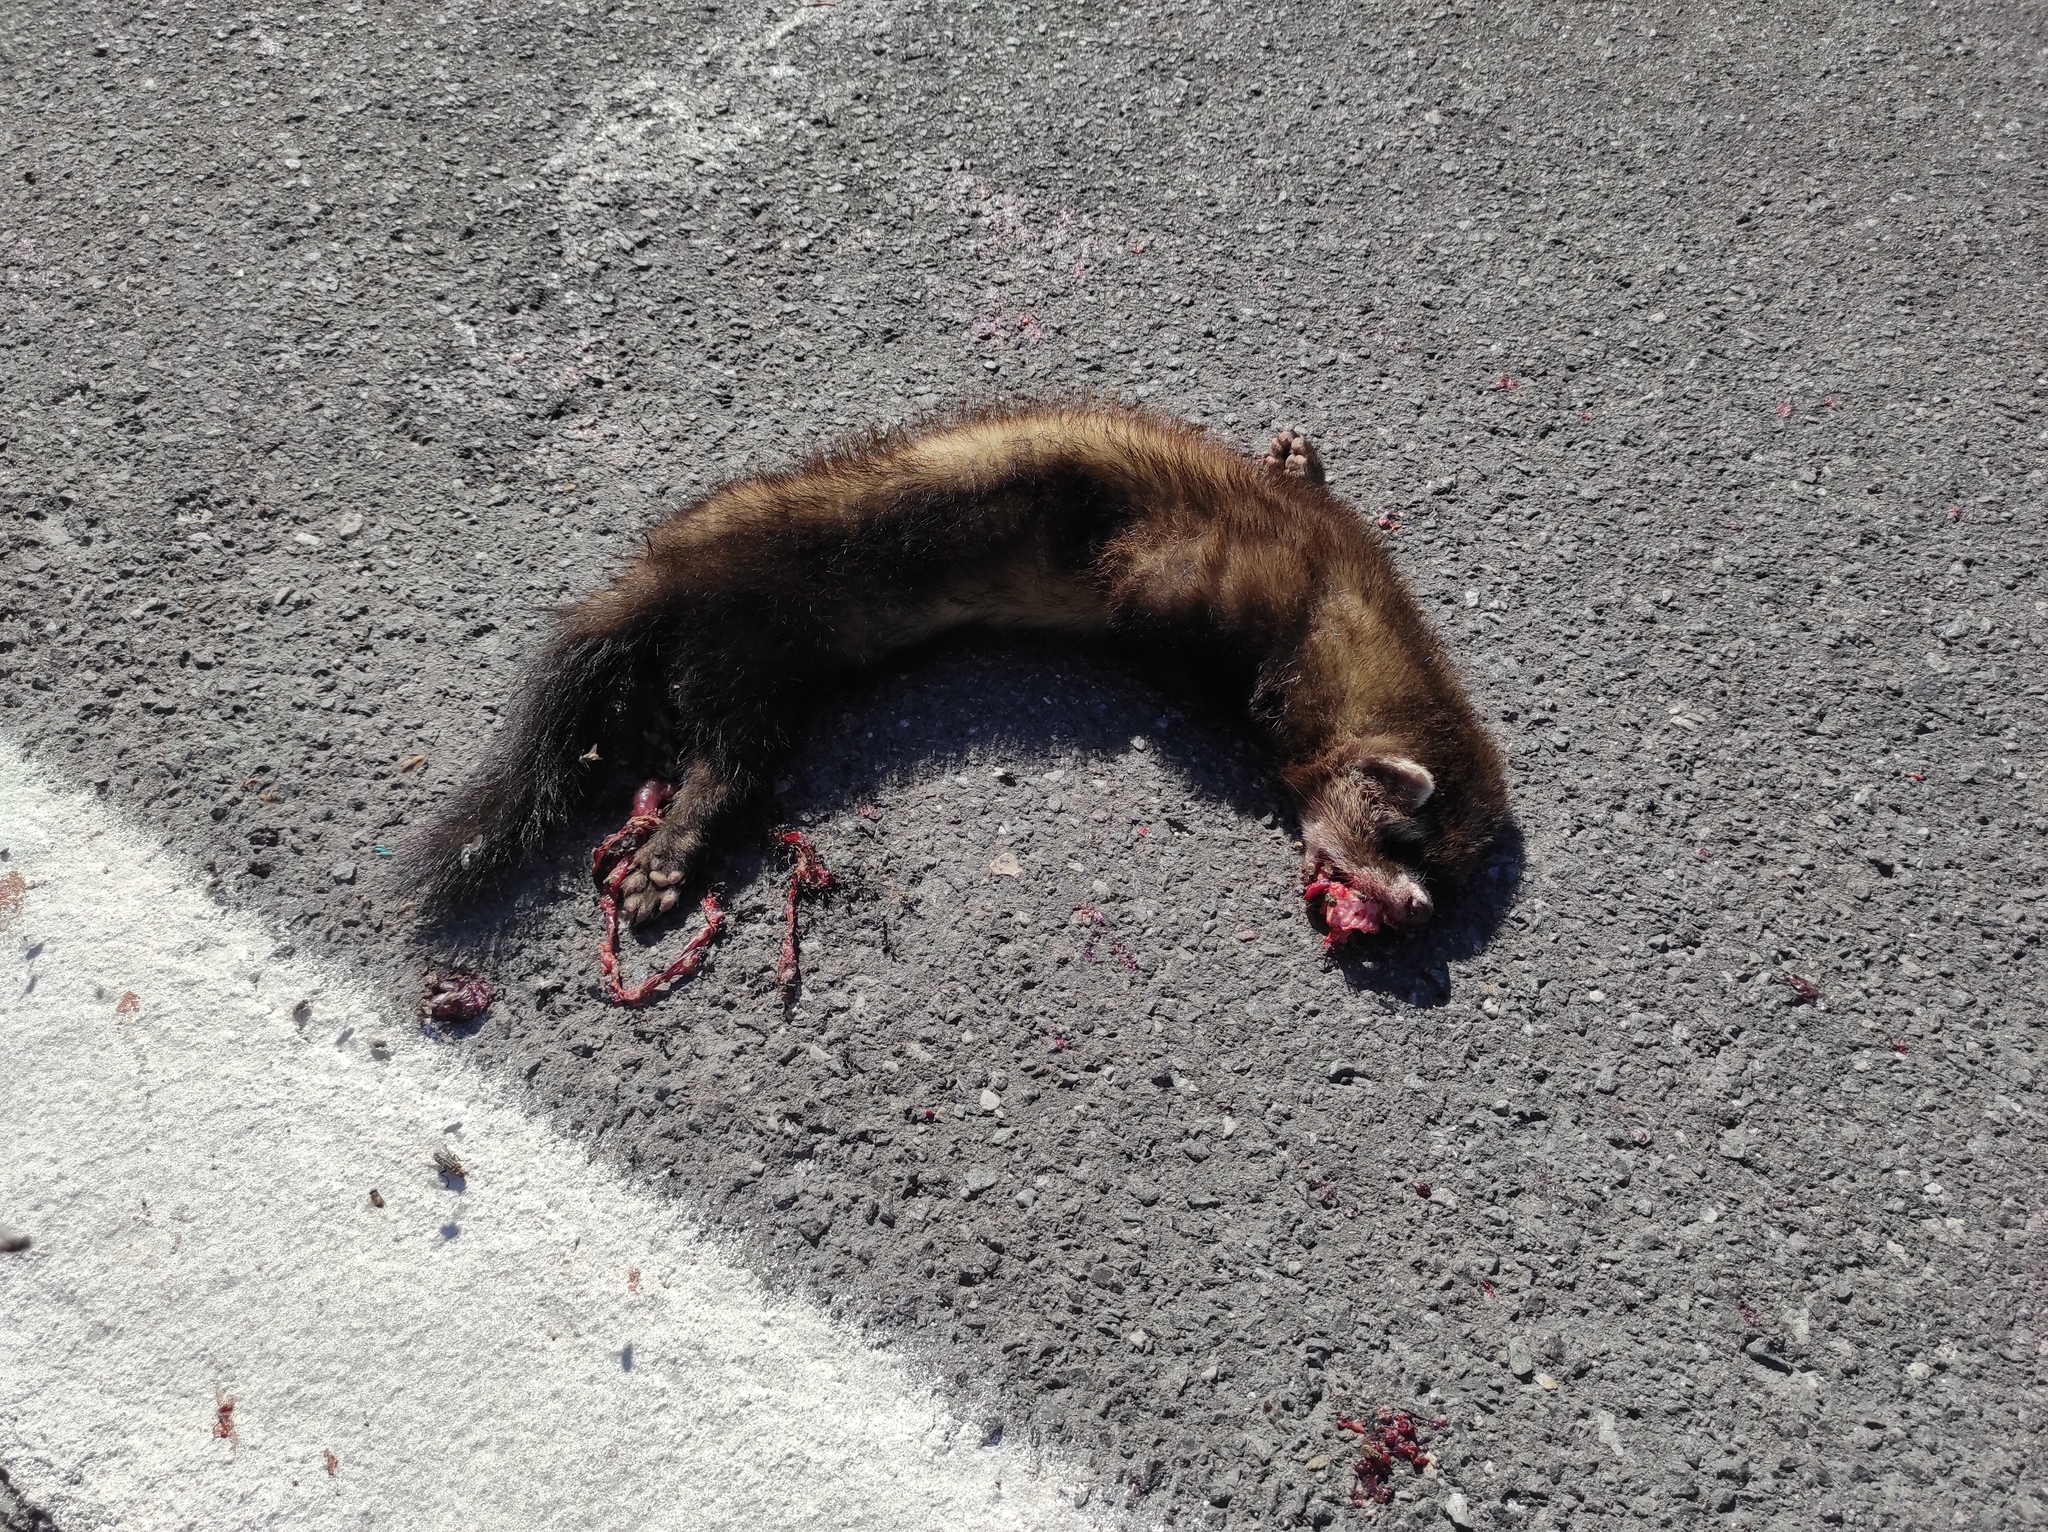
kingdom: Animalia
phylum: Chordata
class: Mammalia
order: Carnivora
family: Mustelidae
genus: Mustela
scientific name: Mustela putorius
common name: European polecat
